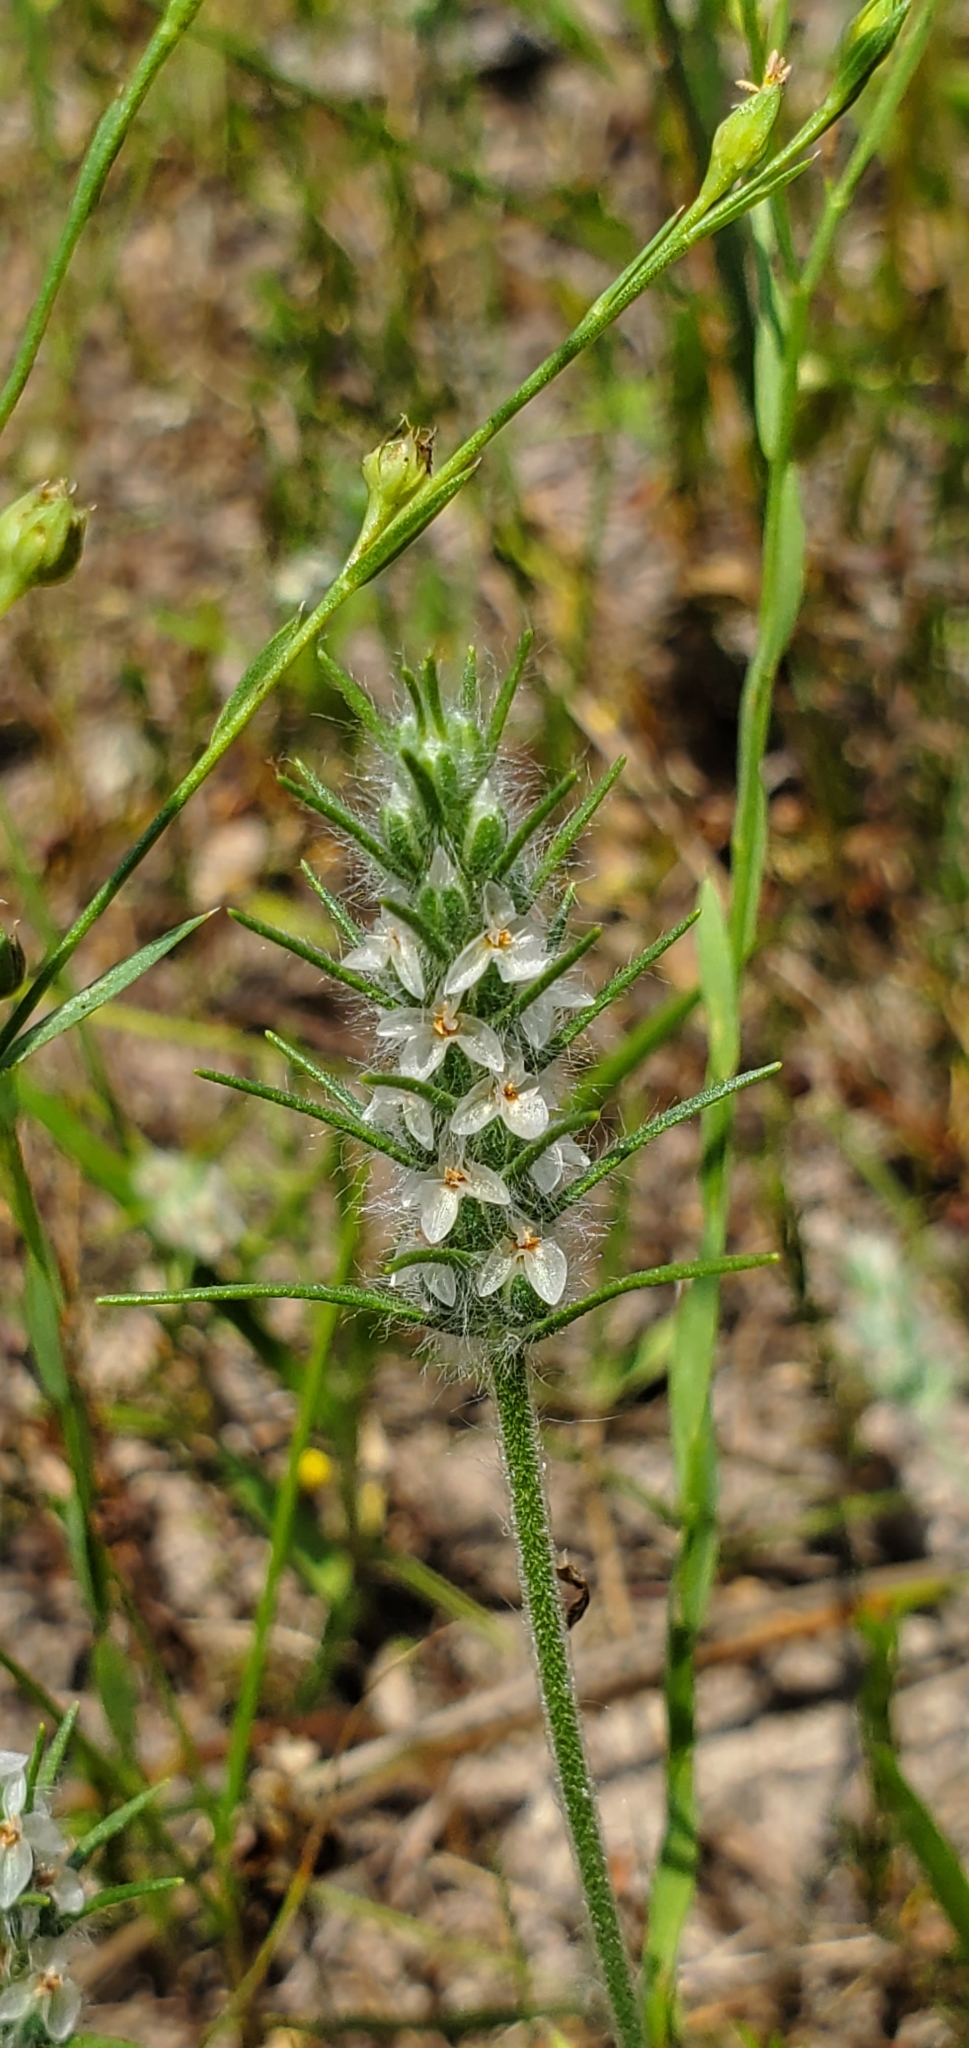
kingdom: Plantae
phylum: Tracheophyta
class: Magnoliopsida
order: Lamiales
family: Plantaginaceae
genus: Plantago
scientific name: Plantago aristata
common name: Bracted plantain
